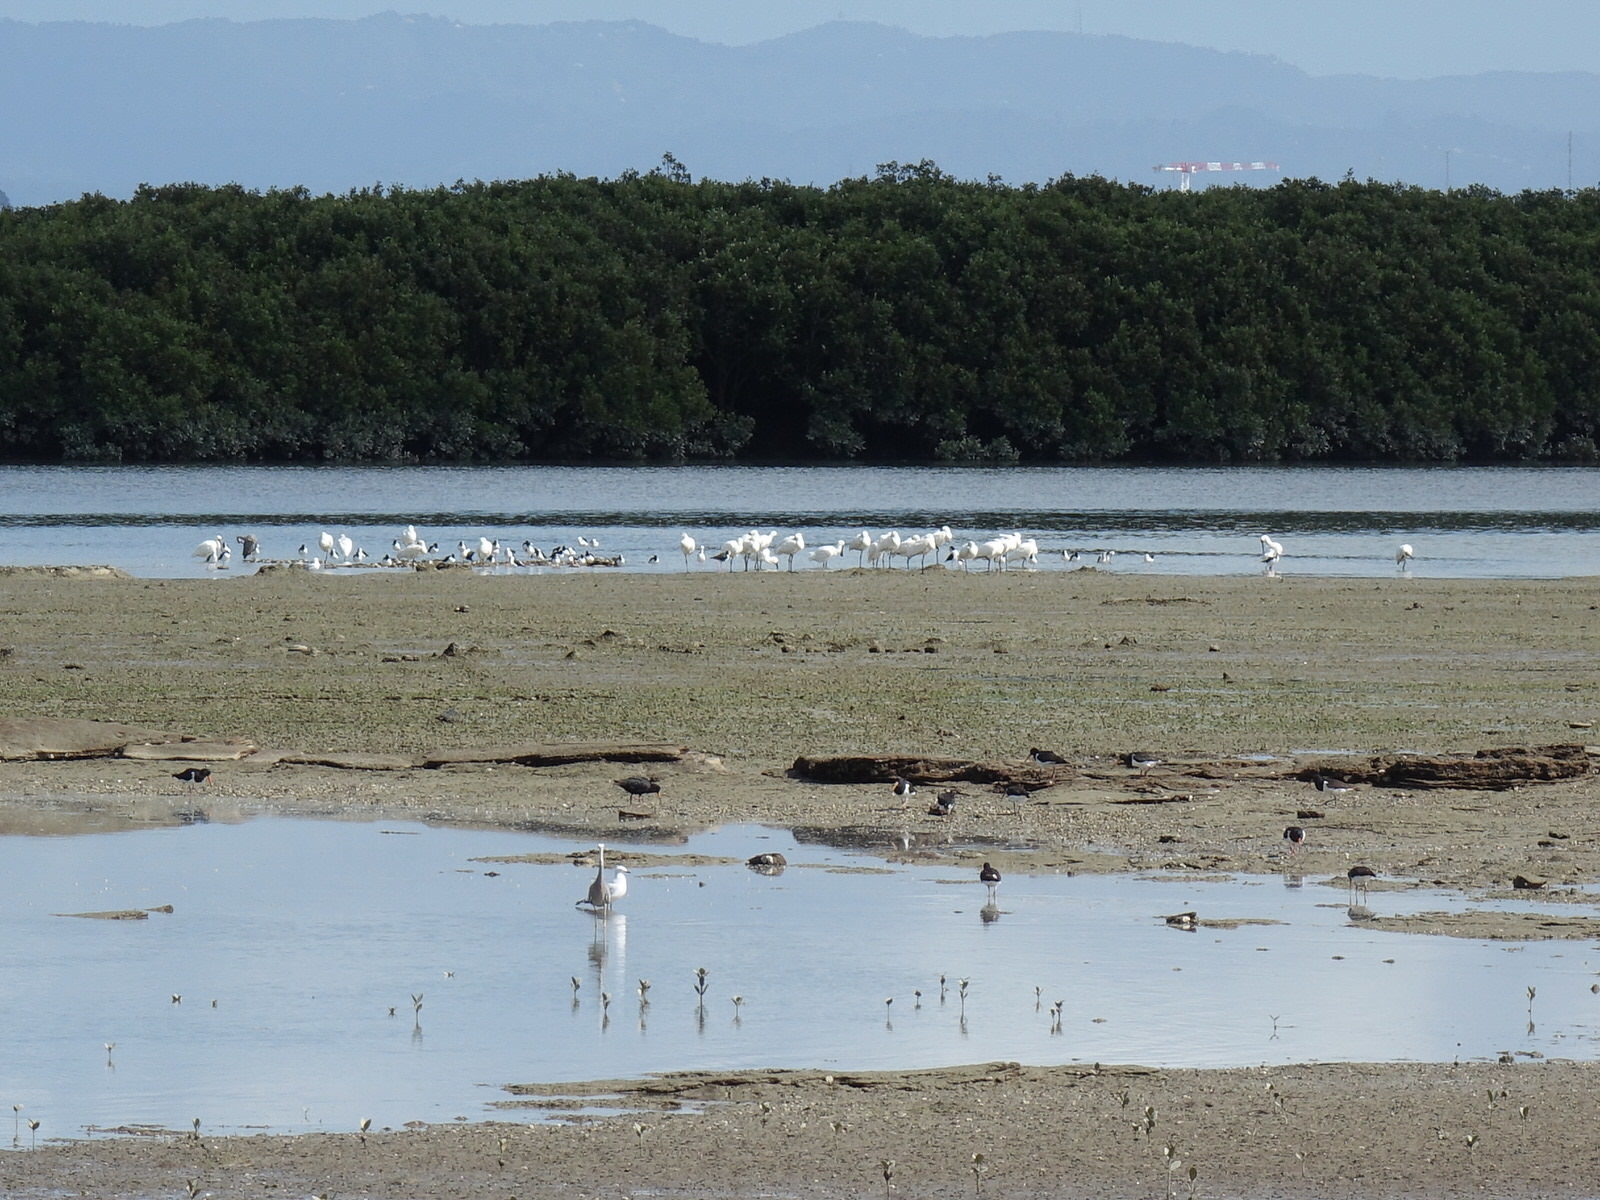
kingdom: Animalia
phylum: Chordata
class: Aves
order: Charadriiformes
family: Recurvirostridae
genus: Himantopus
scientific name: Himantopus leucocephalus
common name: White-headed stilt
